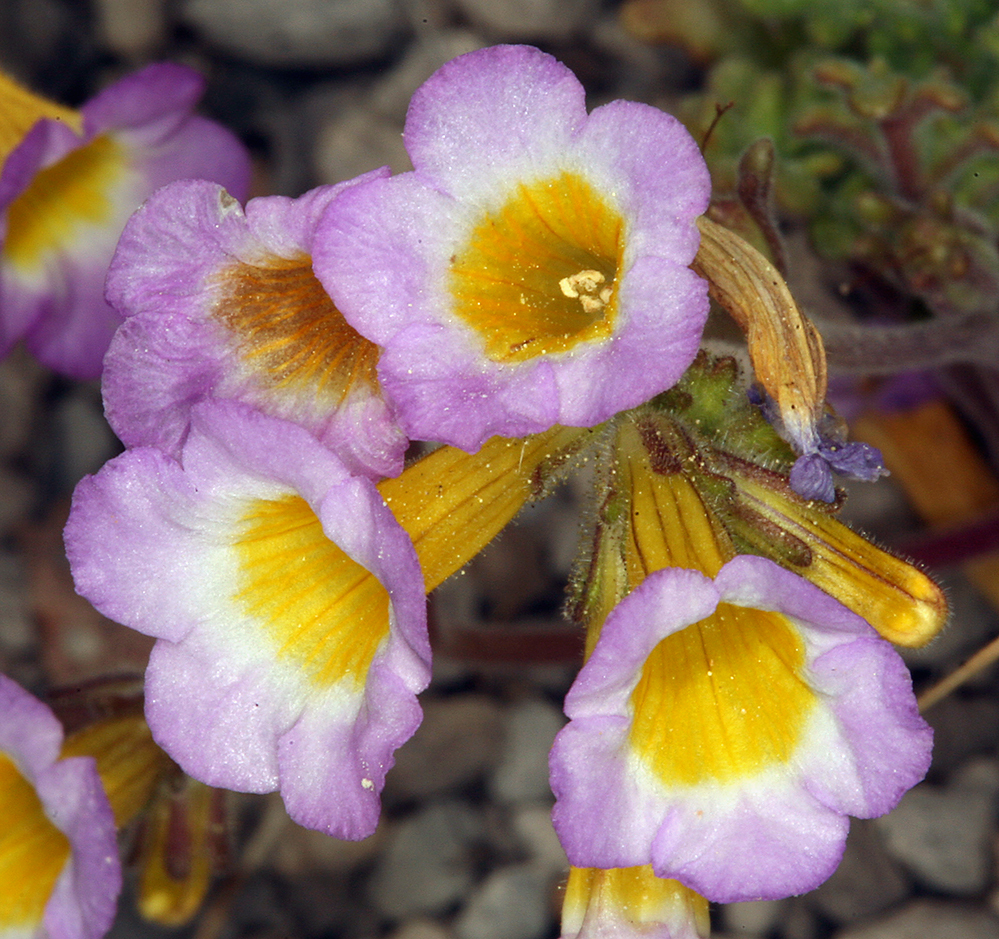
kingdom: Plantae
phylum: Tracheophyta
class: Magnoliopsida
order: Boraginales
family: Hydrophyllaceae
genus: Phacelia
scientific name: Phacelia bicolor
